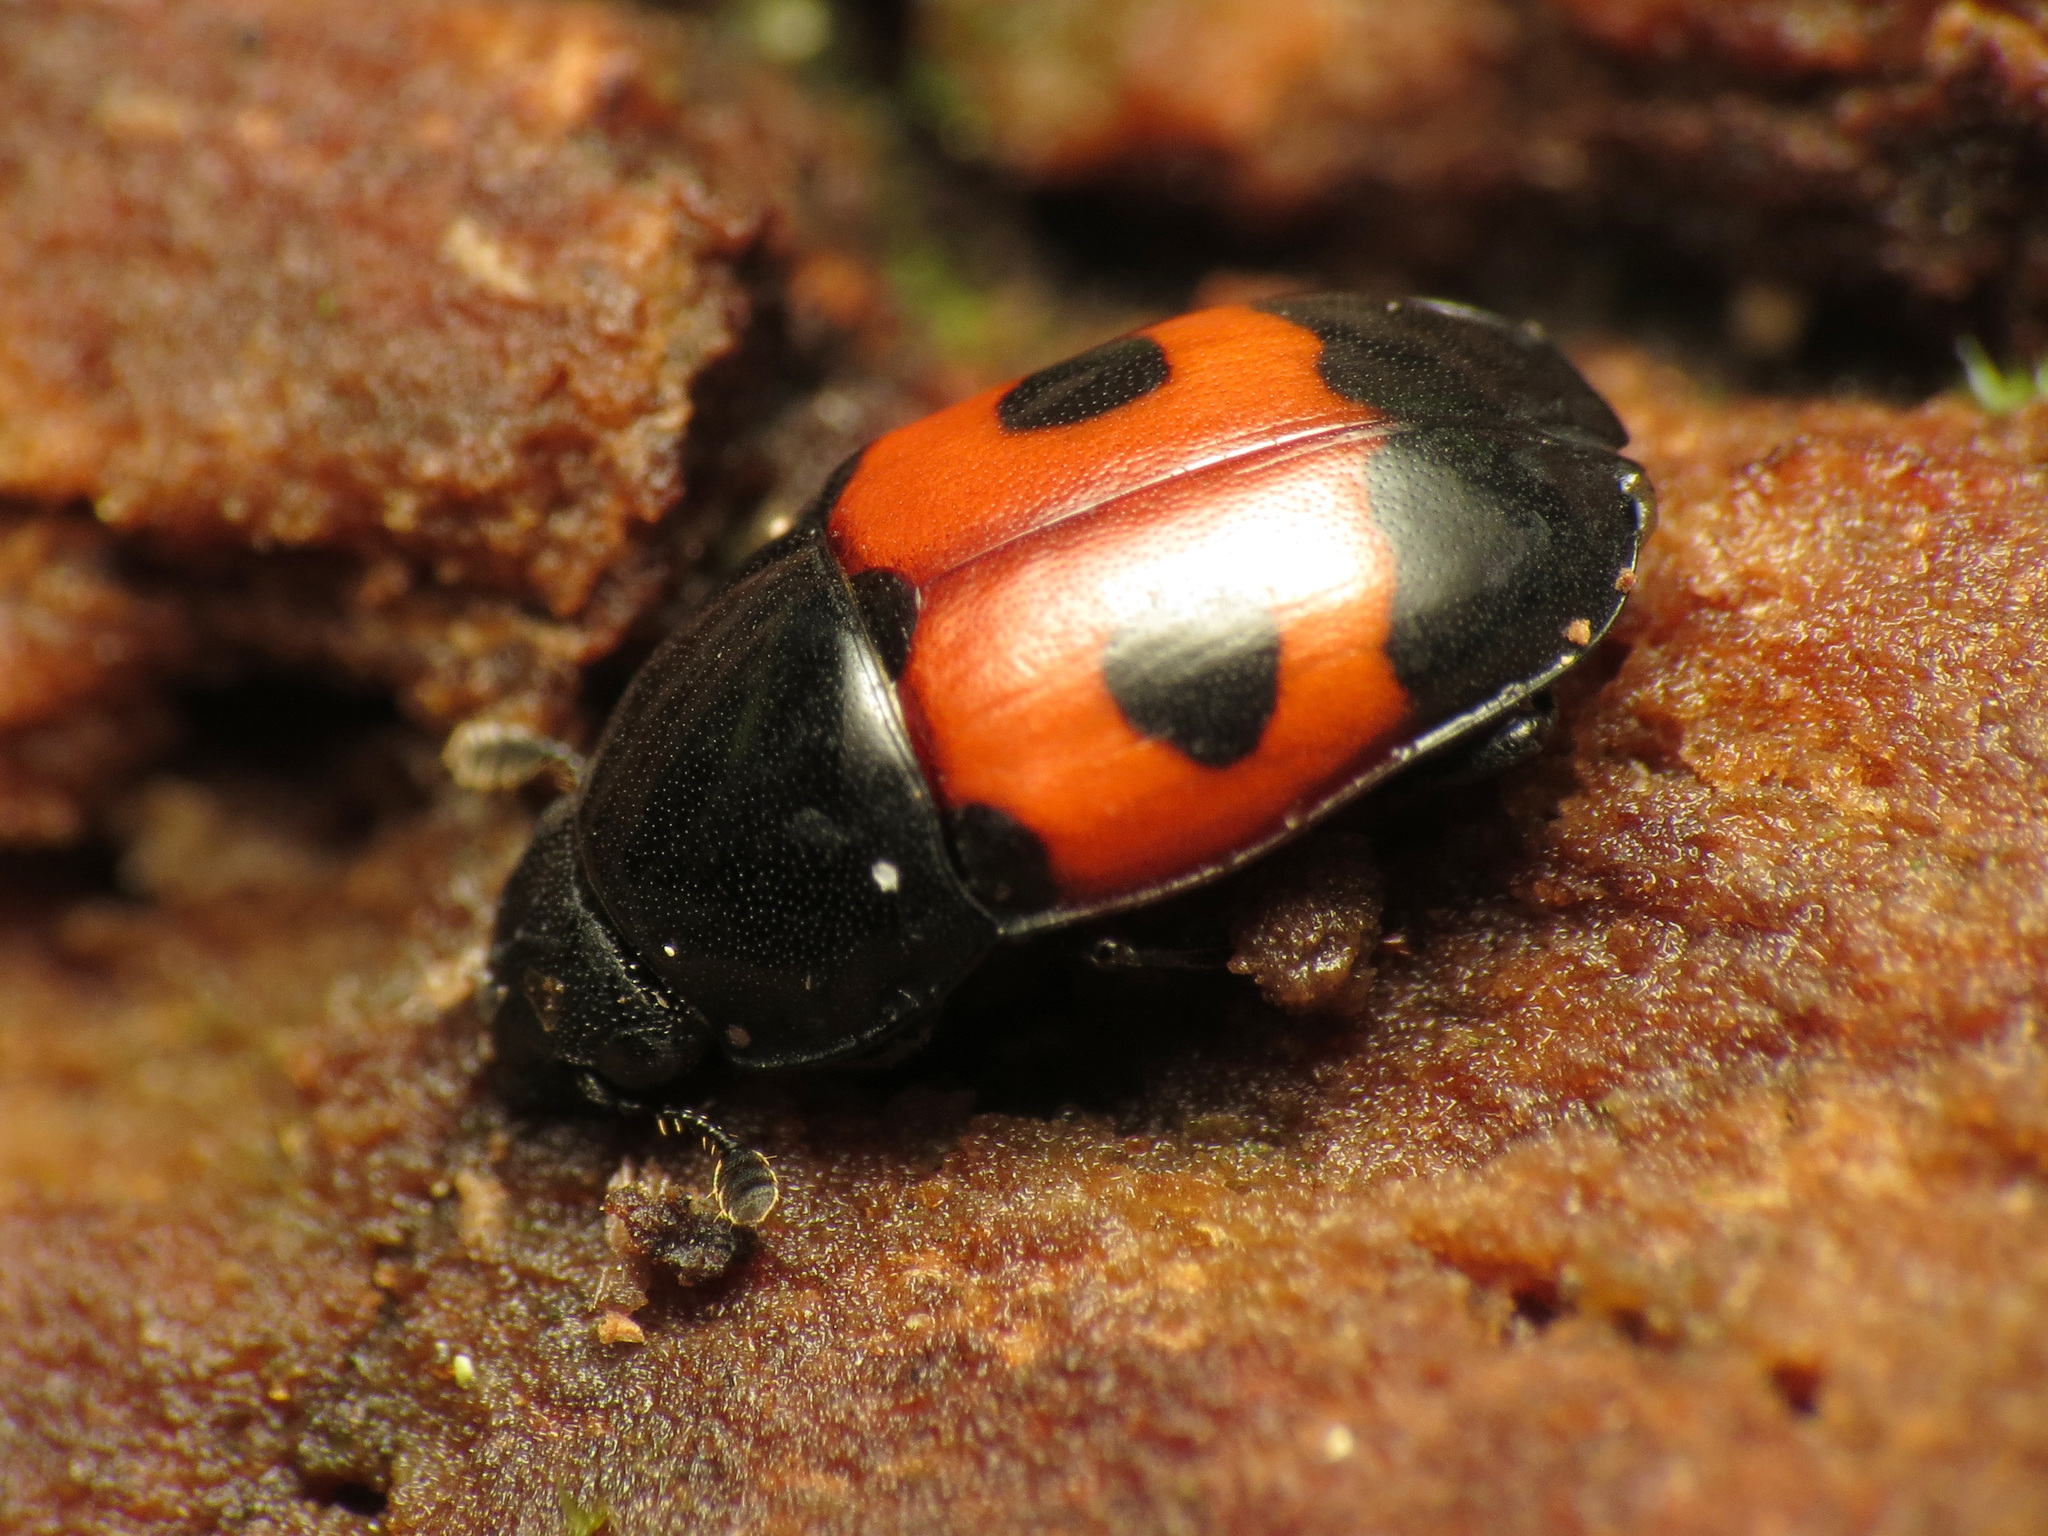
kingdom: Animalia
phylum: Arthropoda
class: Insecta
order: Coleoptera
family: Nitidulidae
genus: Glischrochilus
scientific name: Glischrochilus sanguinolentus
